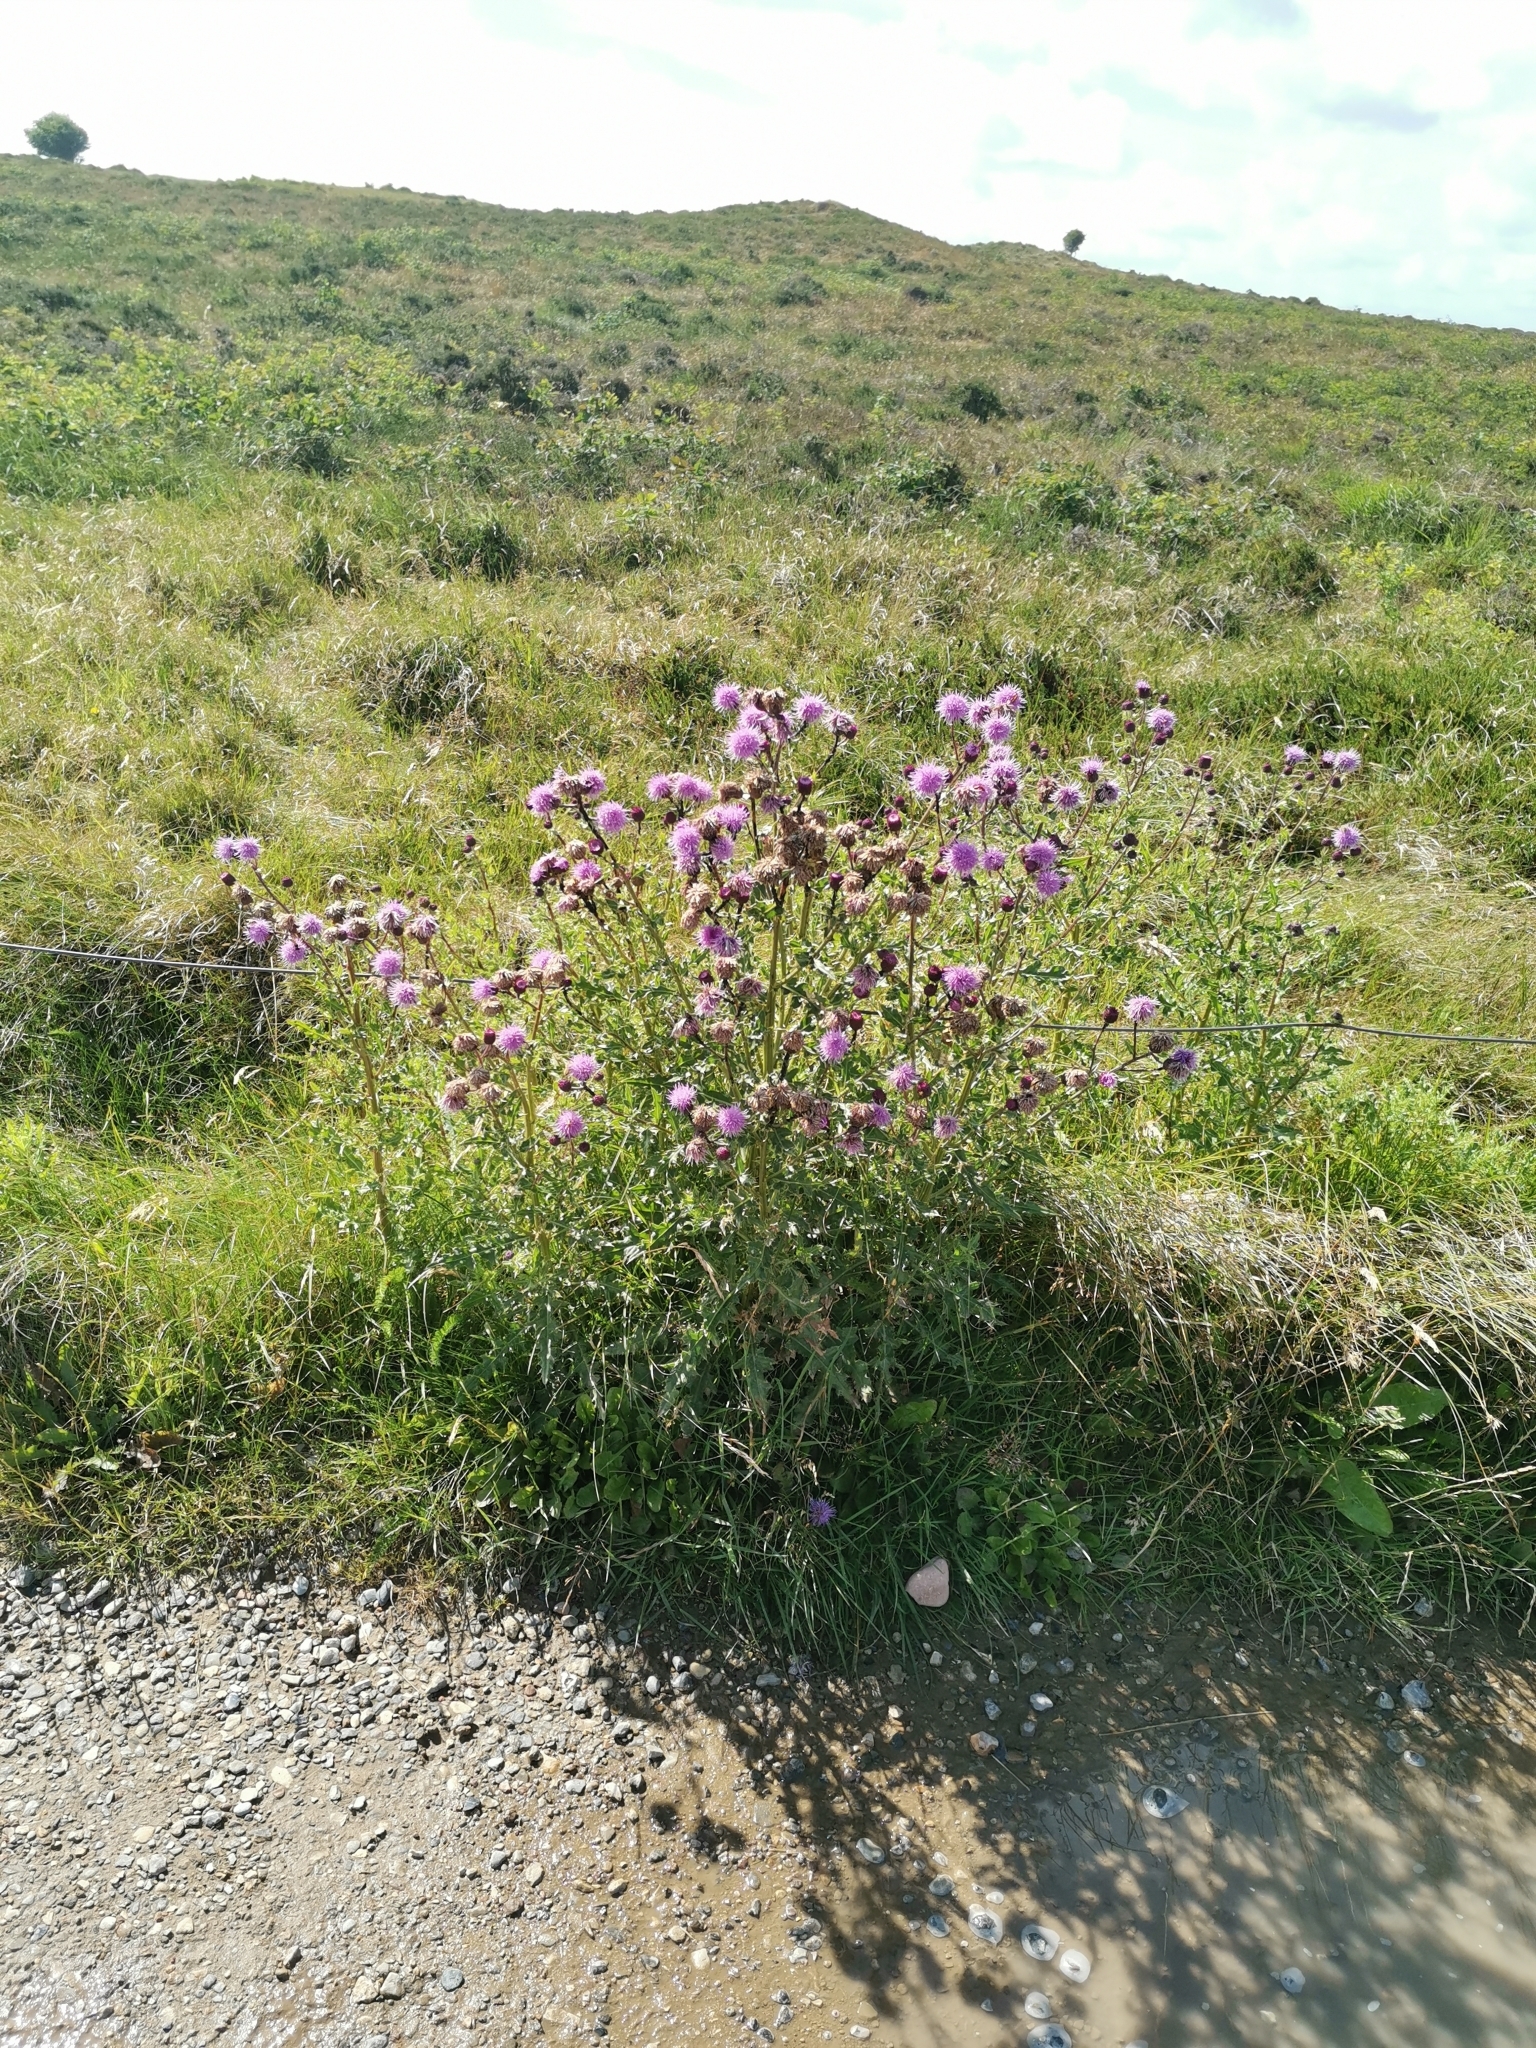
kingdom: Plantae
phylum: Tracheophyta
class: Magnoliopsida
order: Asterales
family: Asteraceae
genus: Cirsium
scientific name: Cirsium arvense
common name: Creeping thistle
